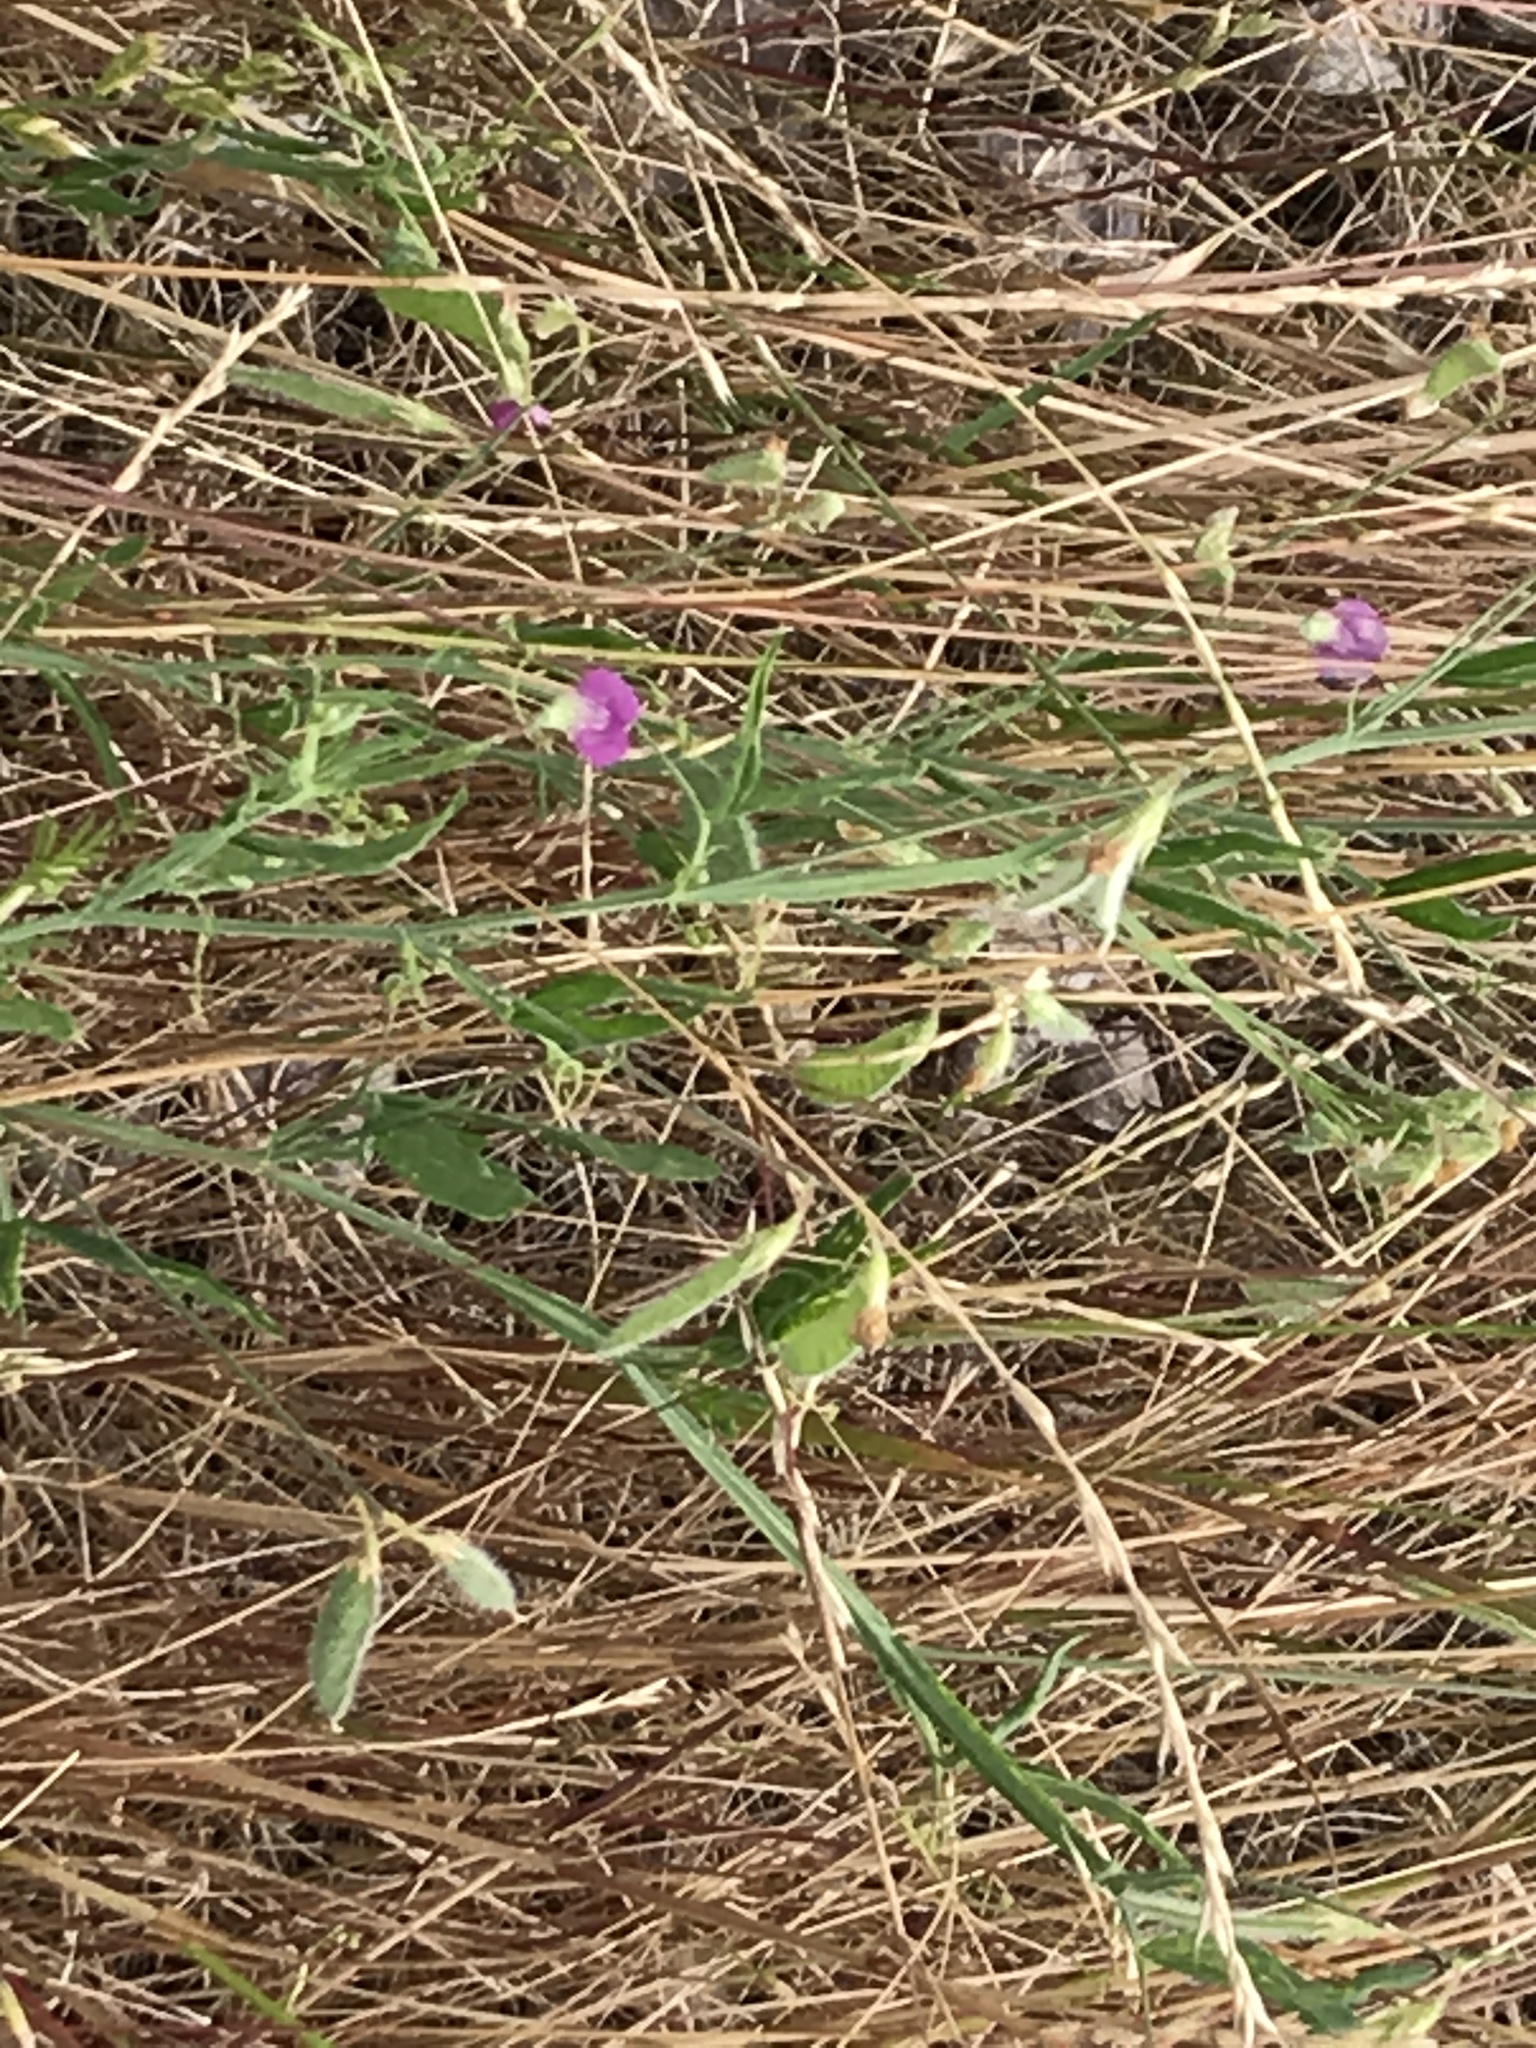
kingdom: Plantae
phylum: Tracheophyta
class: Magnoliopsida
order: Fabales
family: Fabaceae
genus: Lathyrus
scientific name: Lathyrus hirsutus
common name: Hairy vetchling
